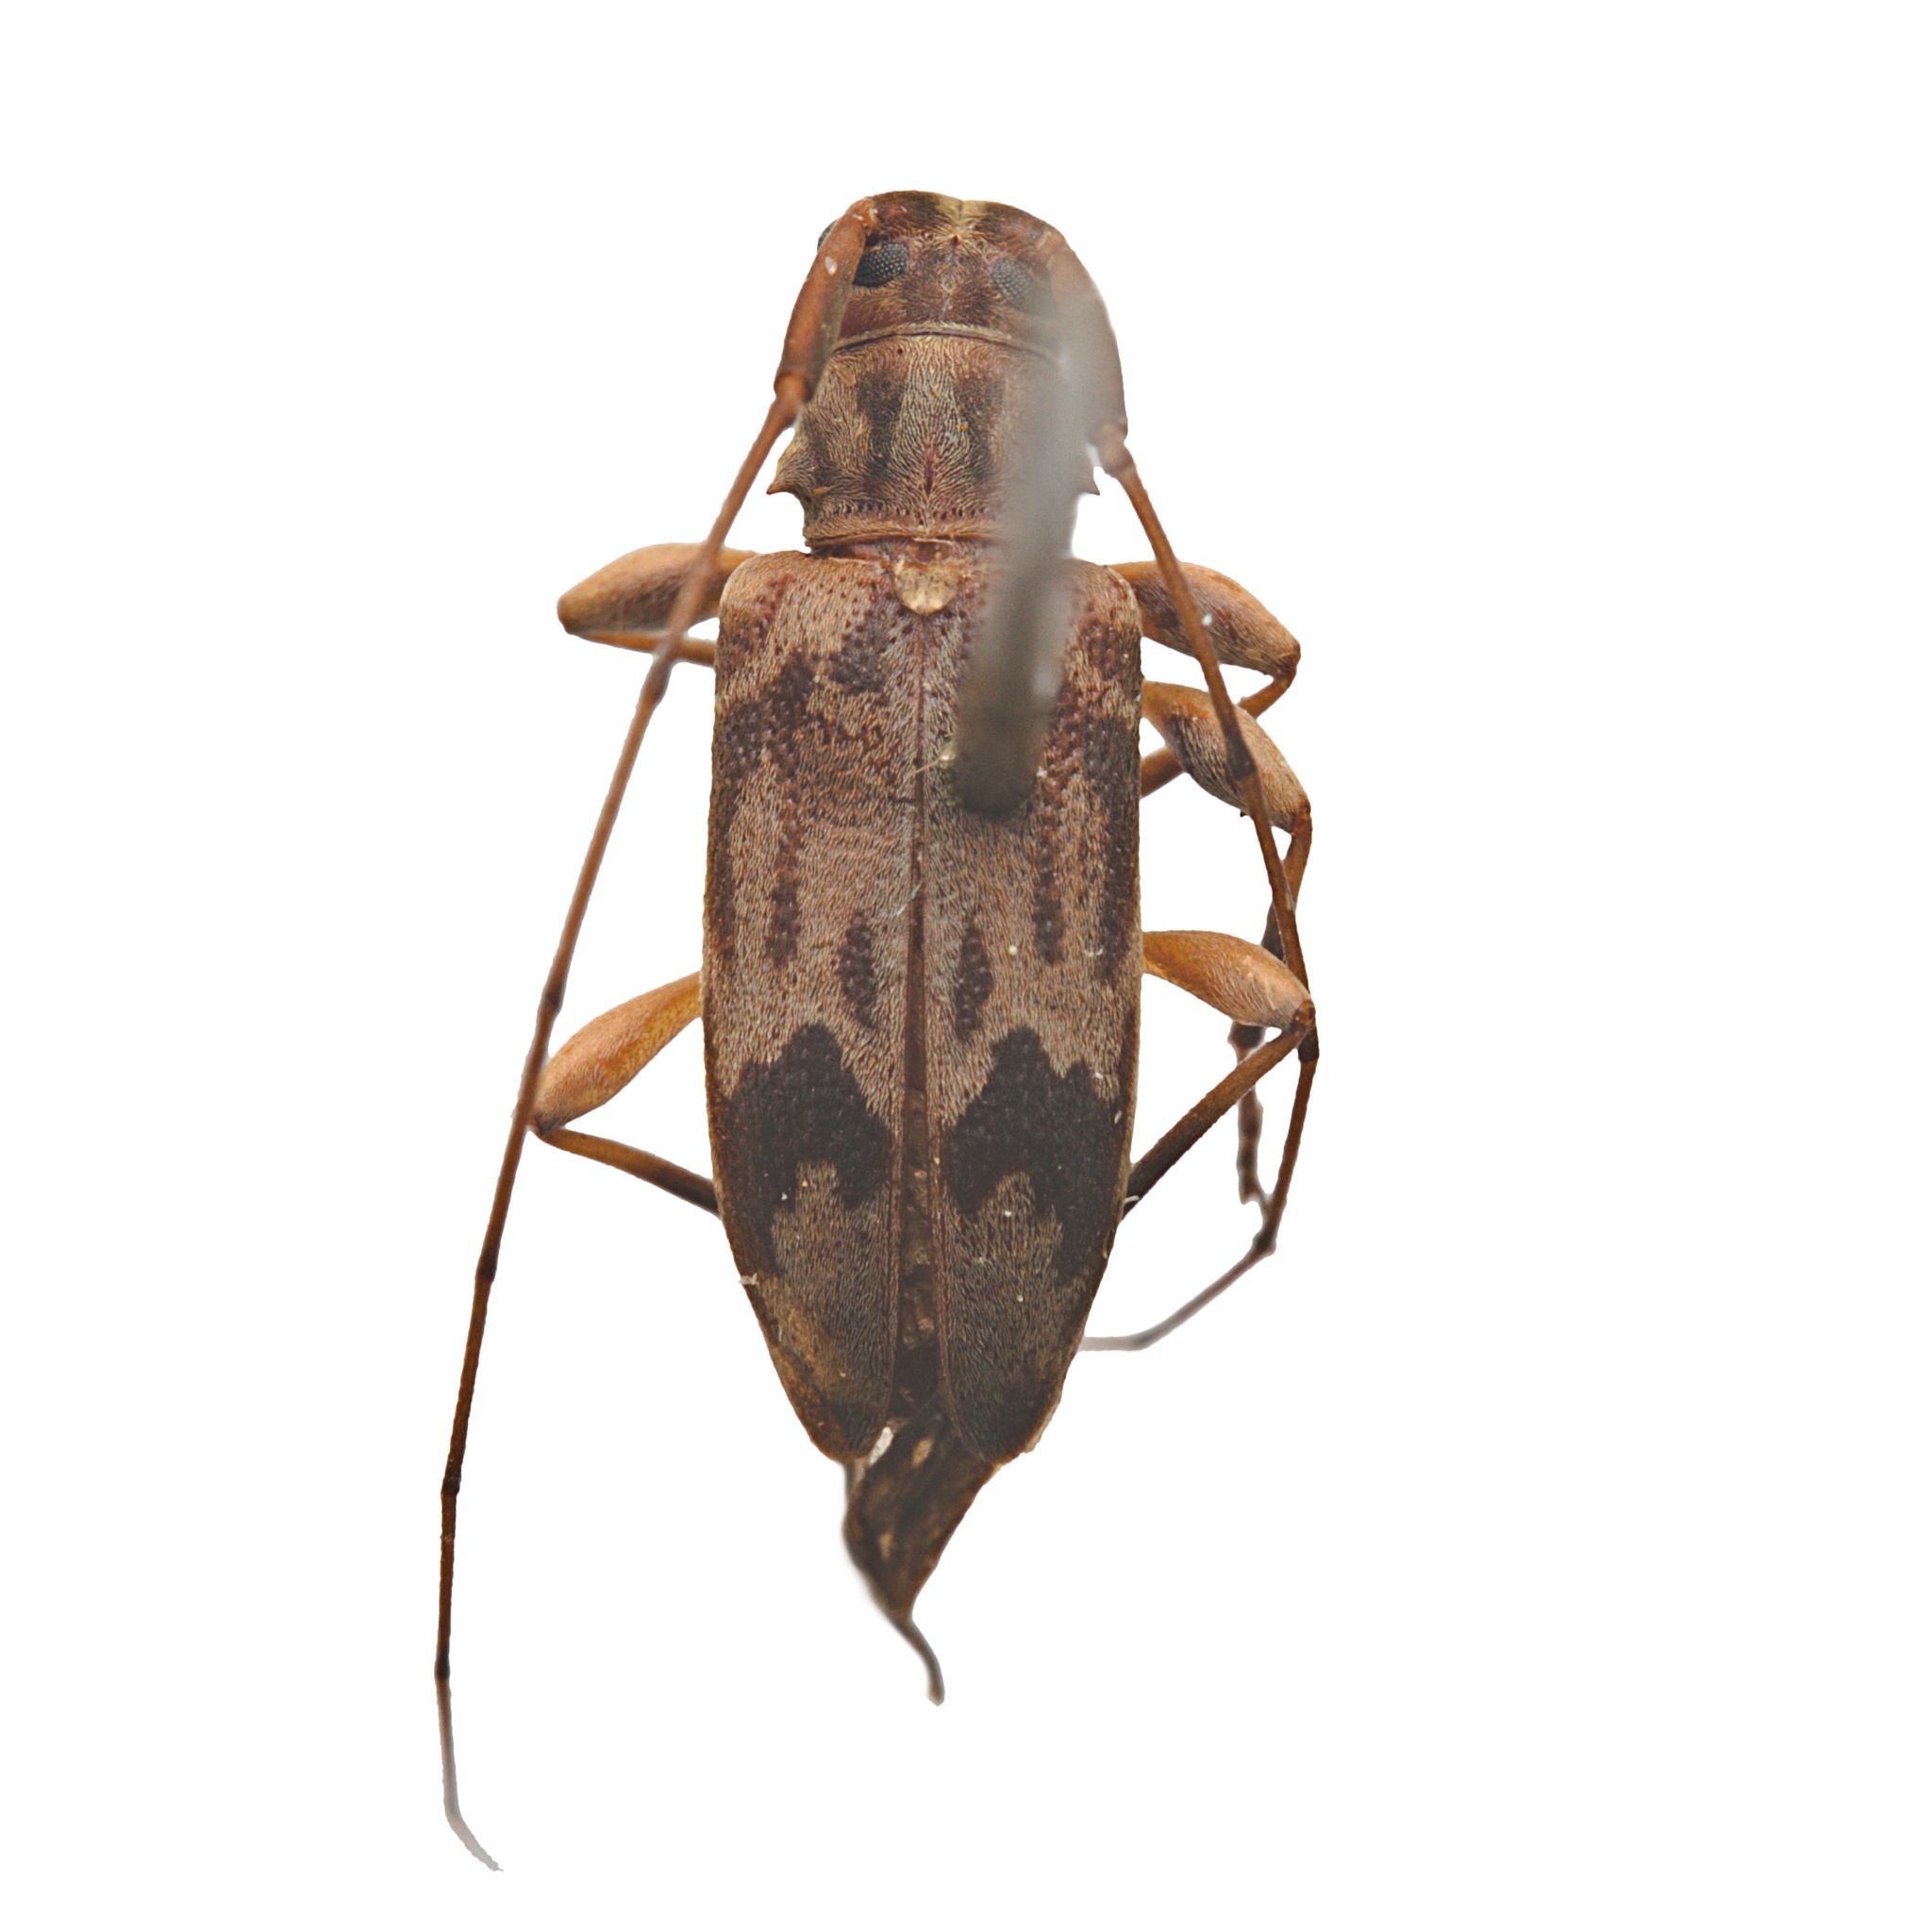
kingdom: Animalia
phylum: Arthropoda
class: Insecta
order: Coleoptera
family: Cerambycidae
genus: Urgleptes
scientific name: Urgleptes signatus
